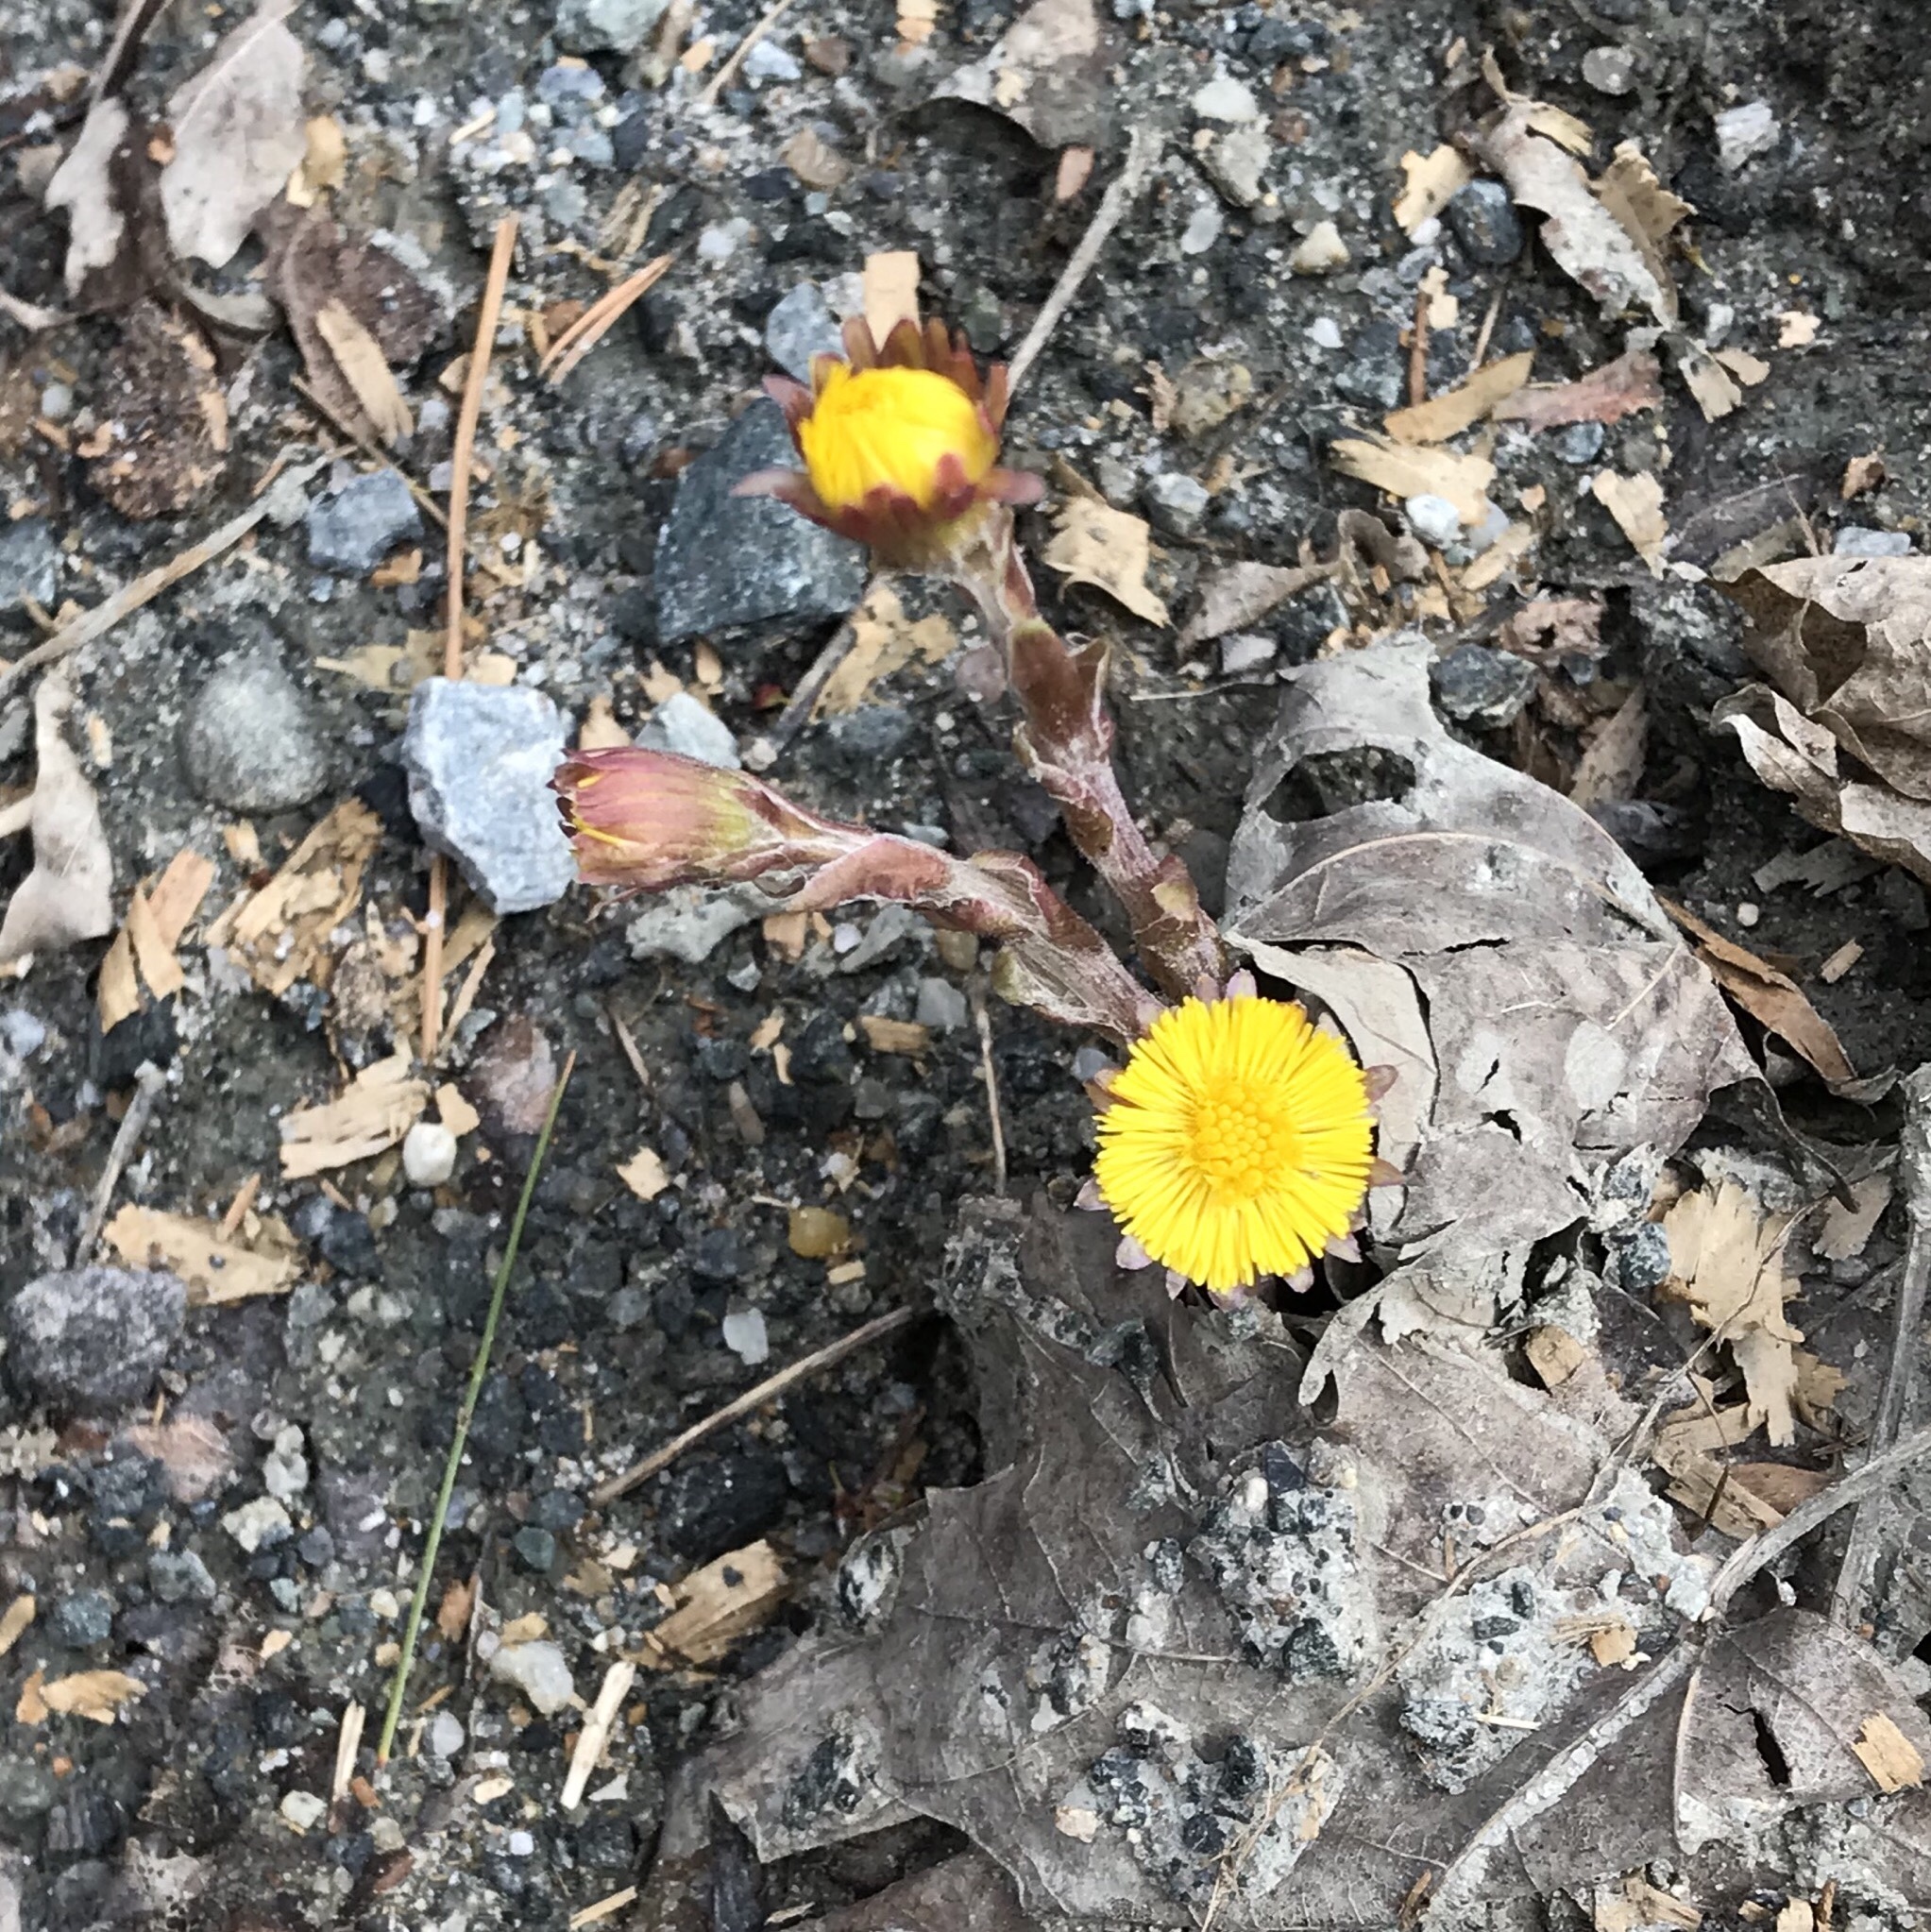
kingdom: Plantae
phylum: Tracheophyta
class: Magnoliopsida
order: Asterales
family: Asteraceae
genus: Tussilago
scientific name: Tussilago farfara
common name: Coltsfoot
